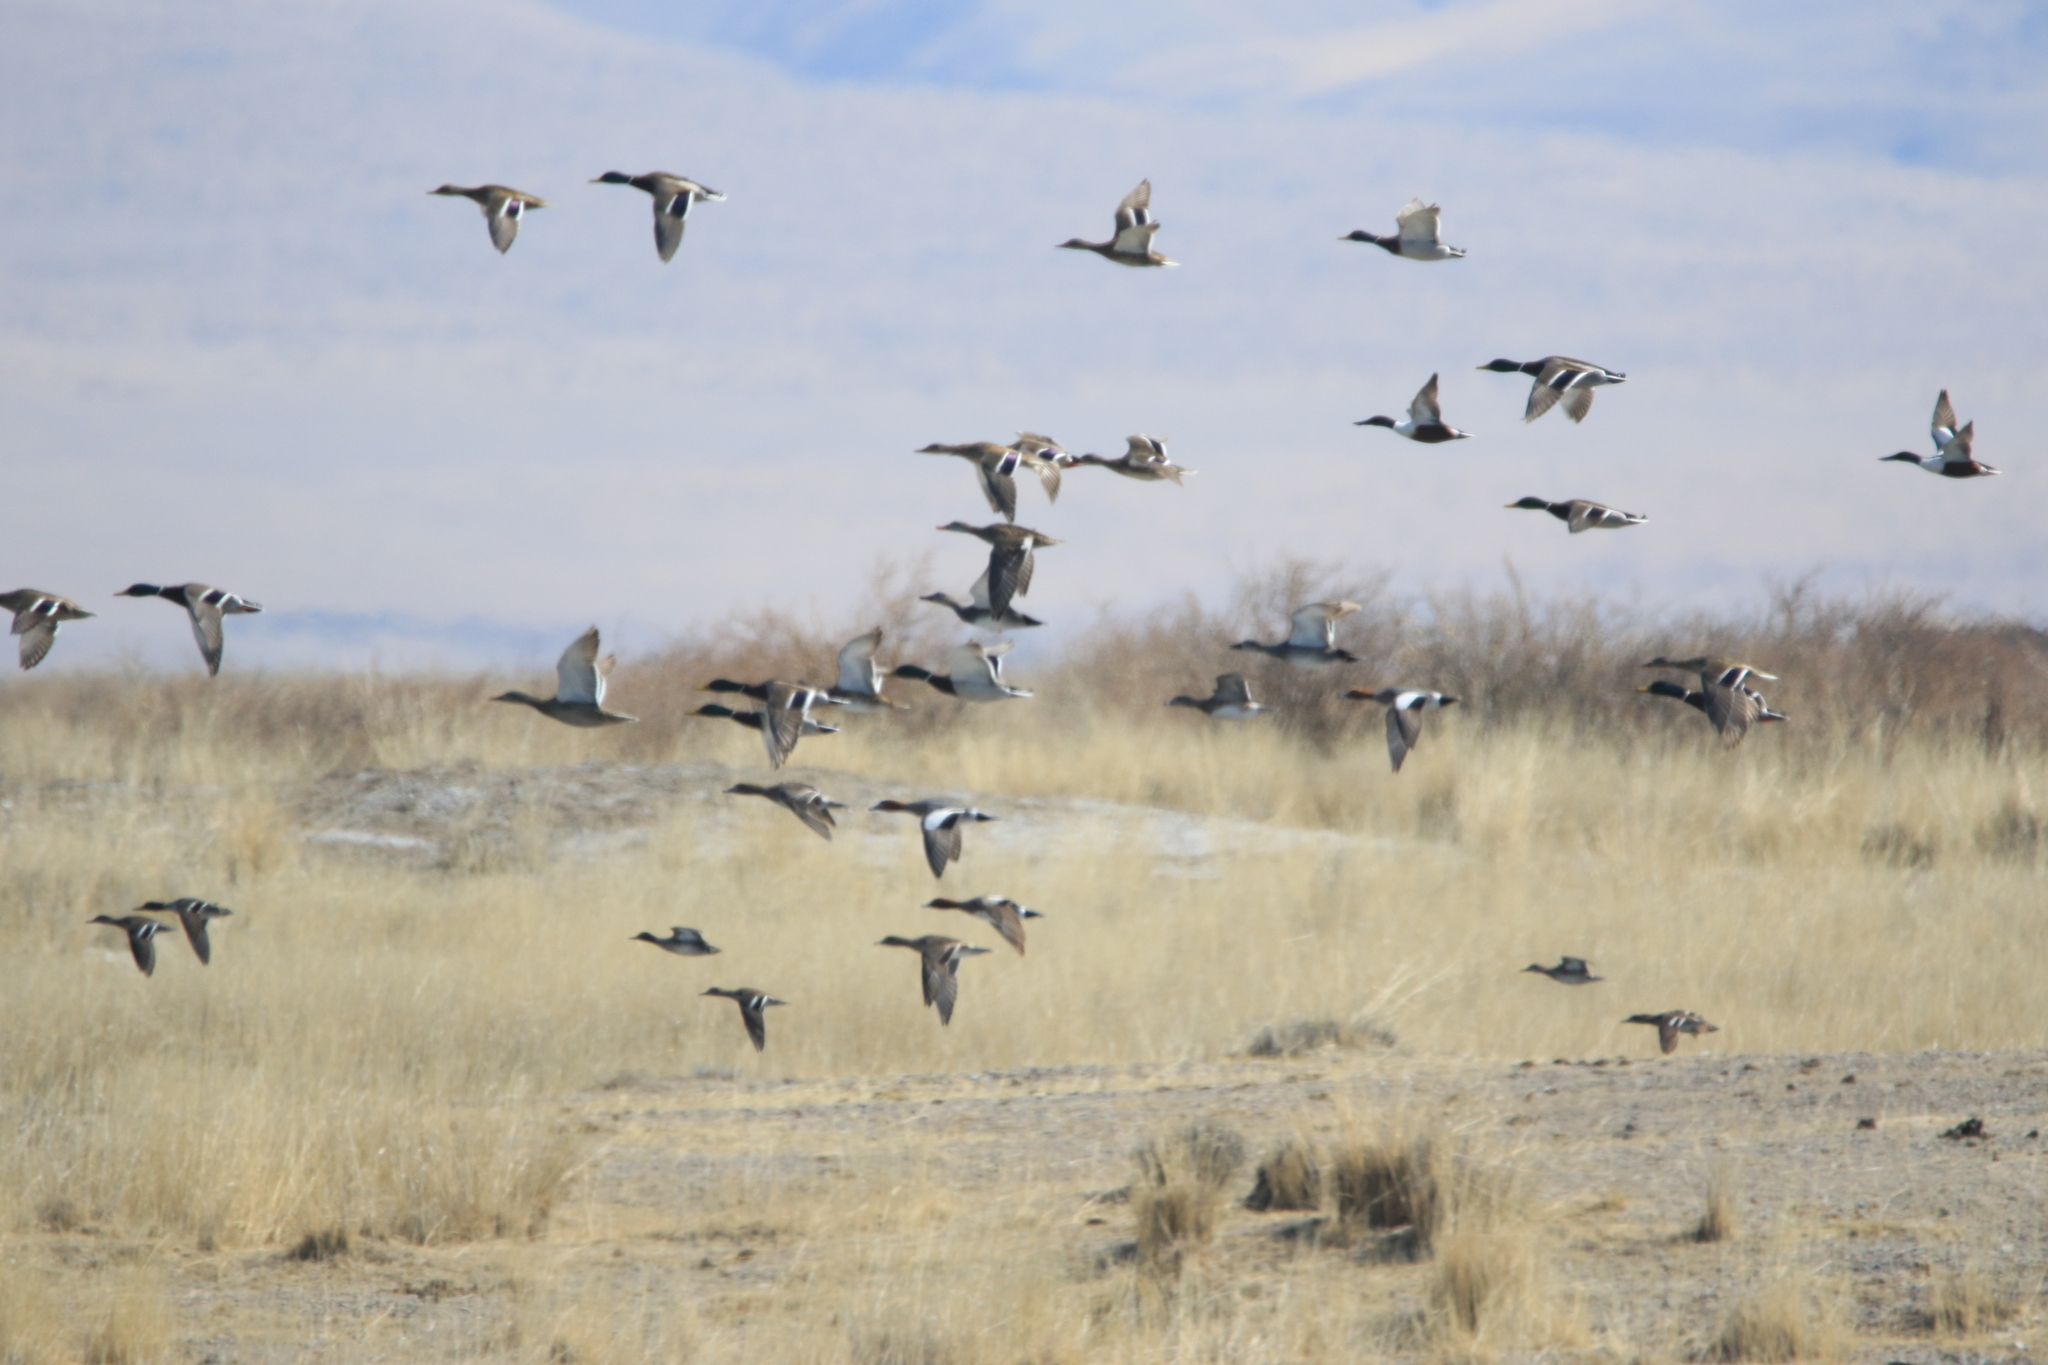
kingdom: Animalia
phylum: Chordata
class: Aves
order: Anseriformes
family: Anatidae
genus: Mareca
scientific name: Mareca penelope
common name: Eurasian wigeon
